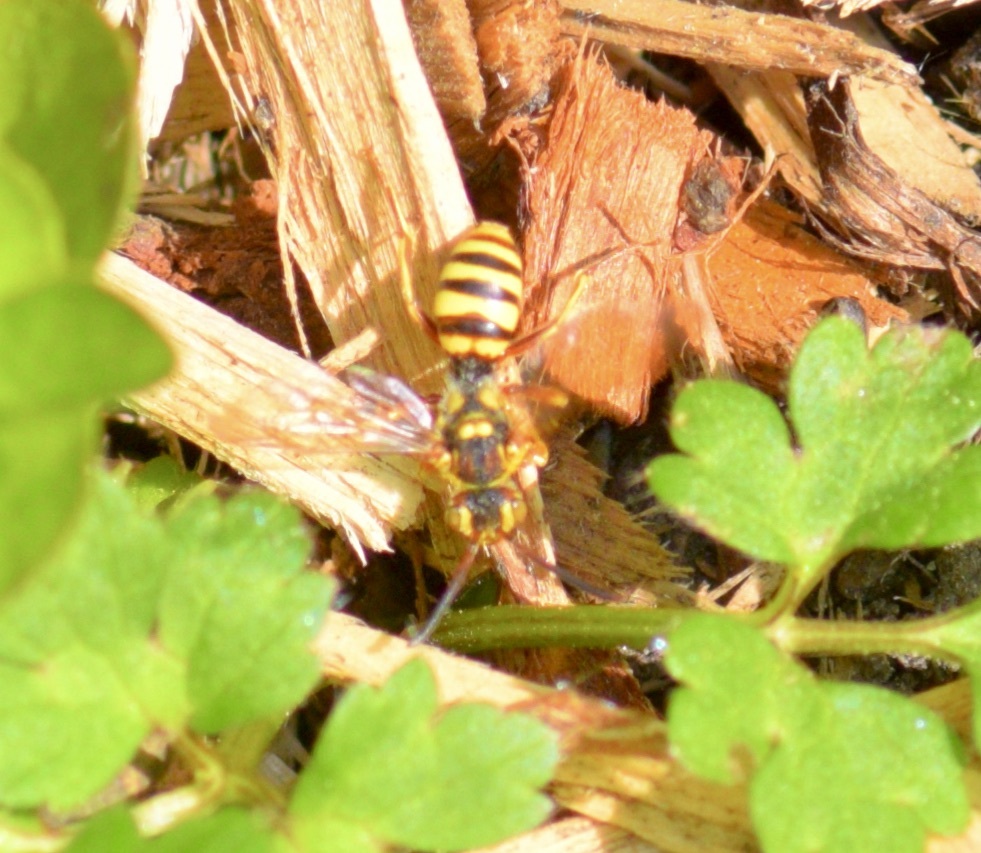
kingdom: Animalia
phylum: Arthropoda
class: Insecta
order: Hymenoptera
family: Apidae
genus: Nomada
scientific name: Nomada luteoloides
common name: Black-and-yellow nomad bee
